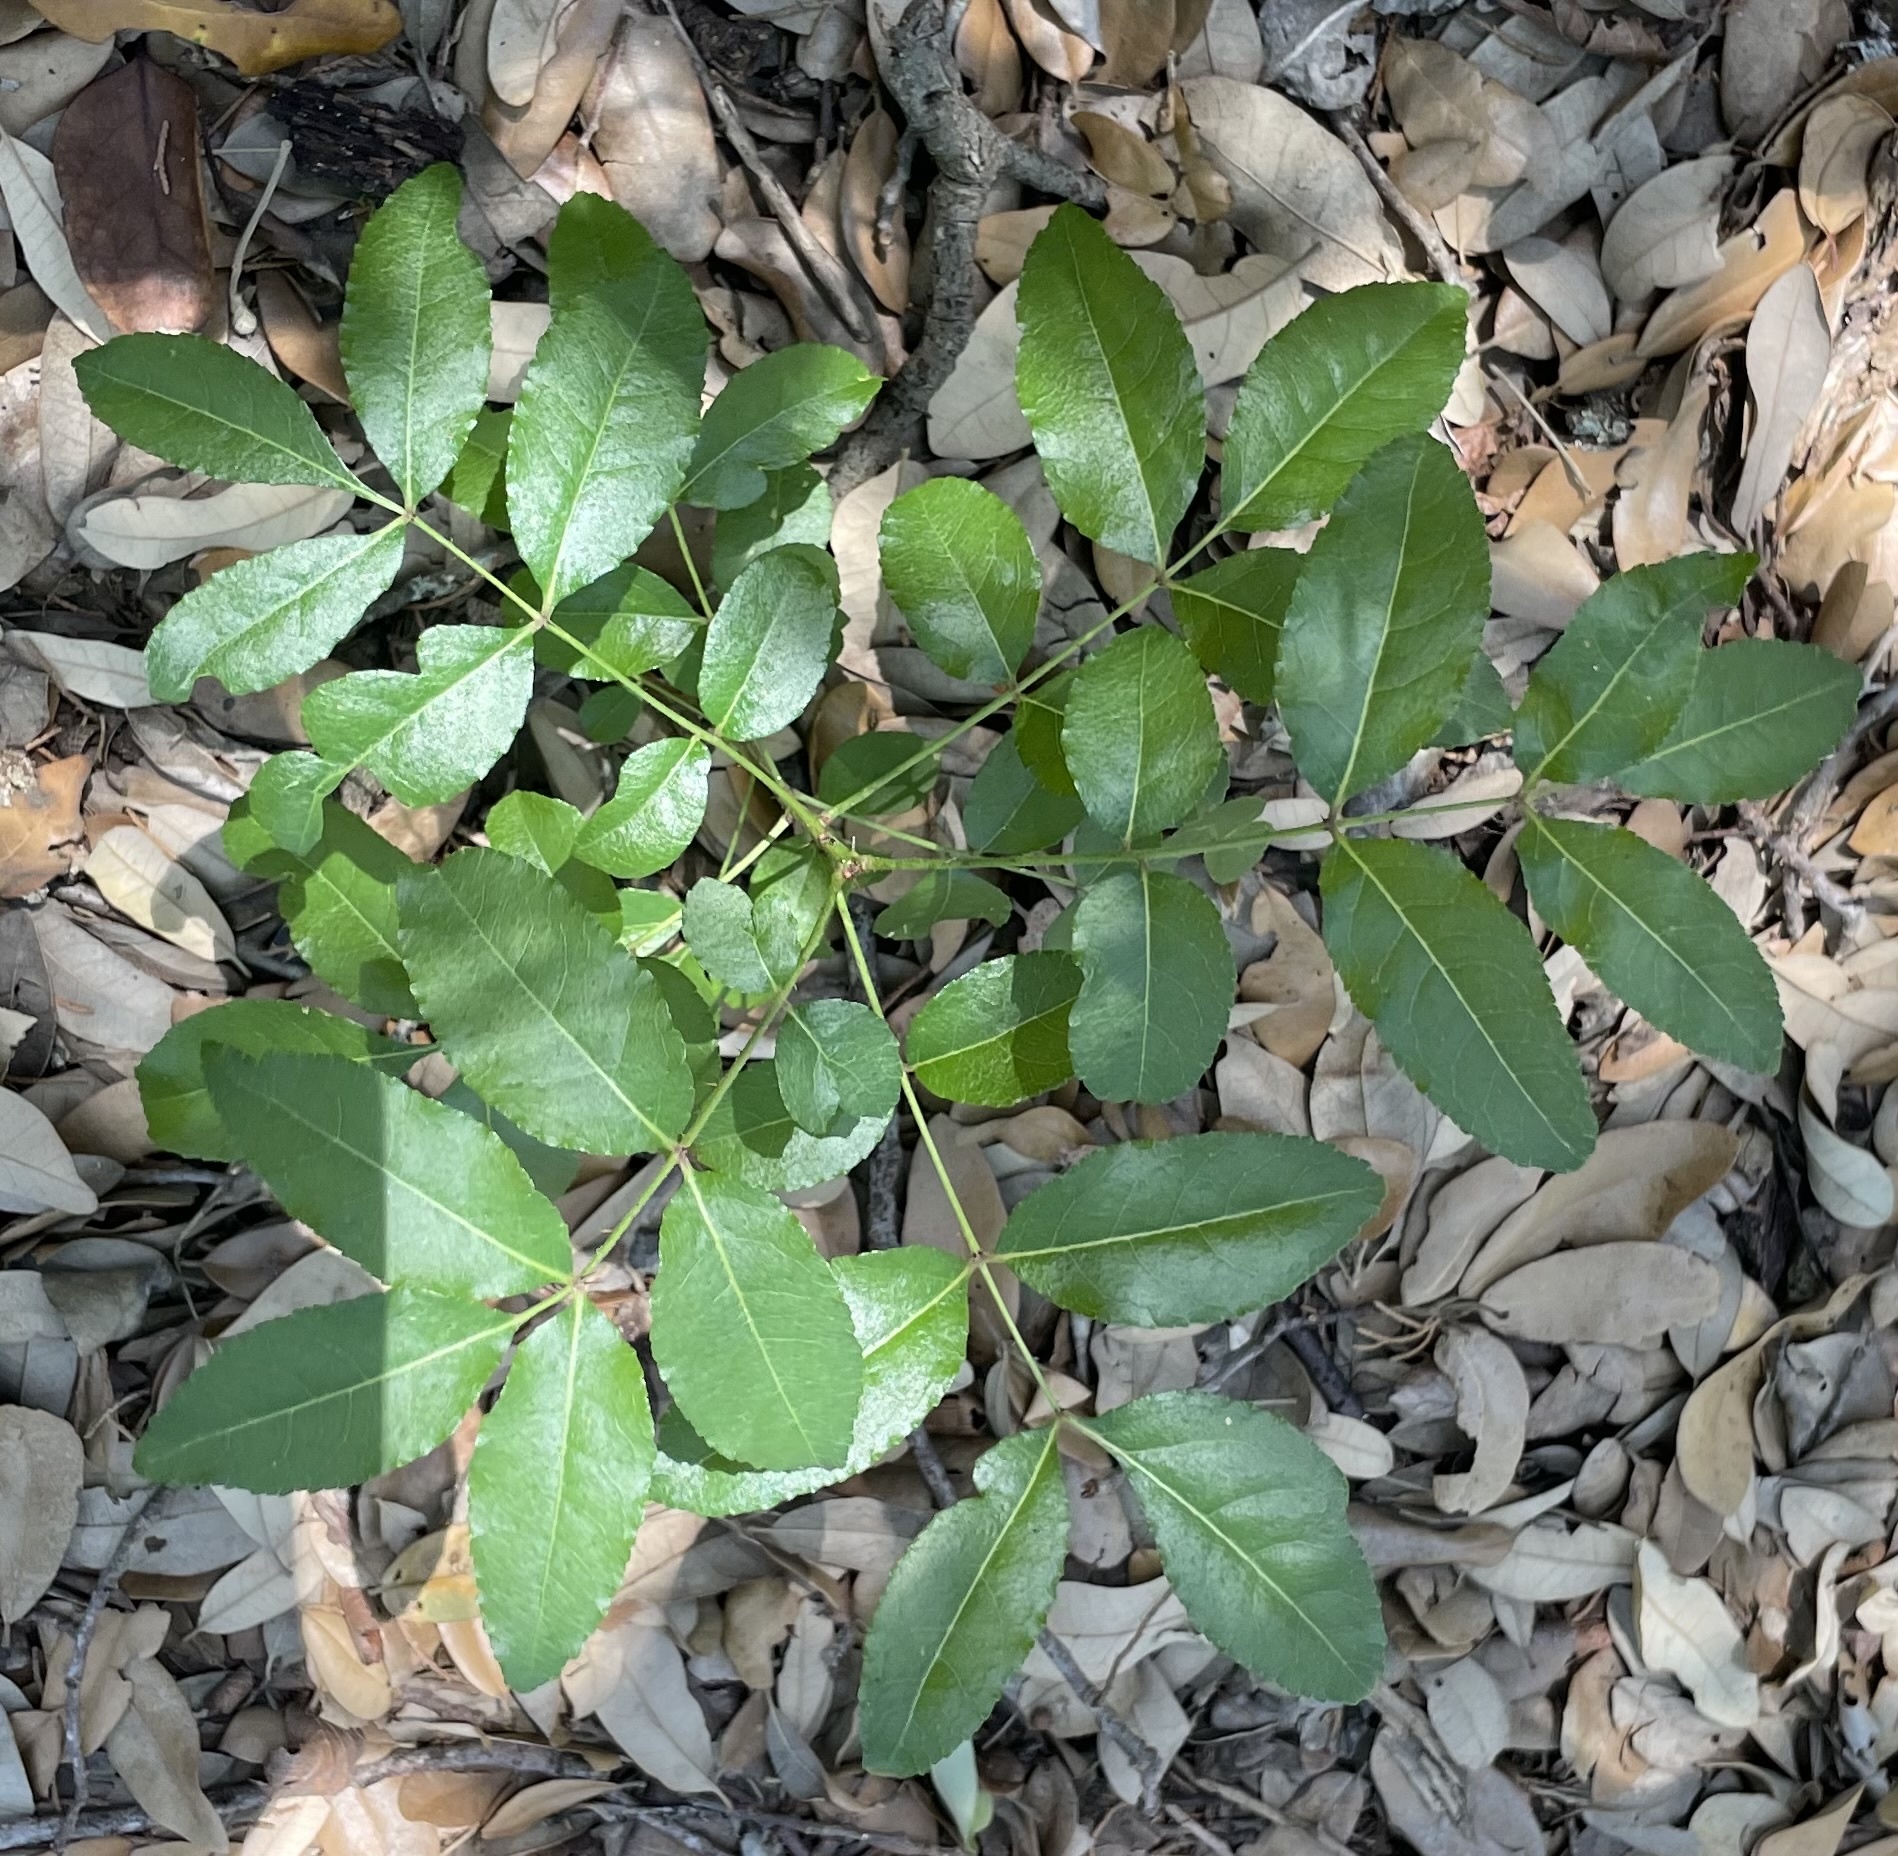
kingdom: Plantae
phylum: Tracheophyta
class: Magnoliopsida
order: Sapindales
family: Rutaceae
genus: Zanthoxylum
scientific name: Zanthoxylum clava-herculis
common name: Hercules'-club
